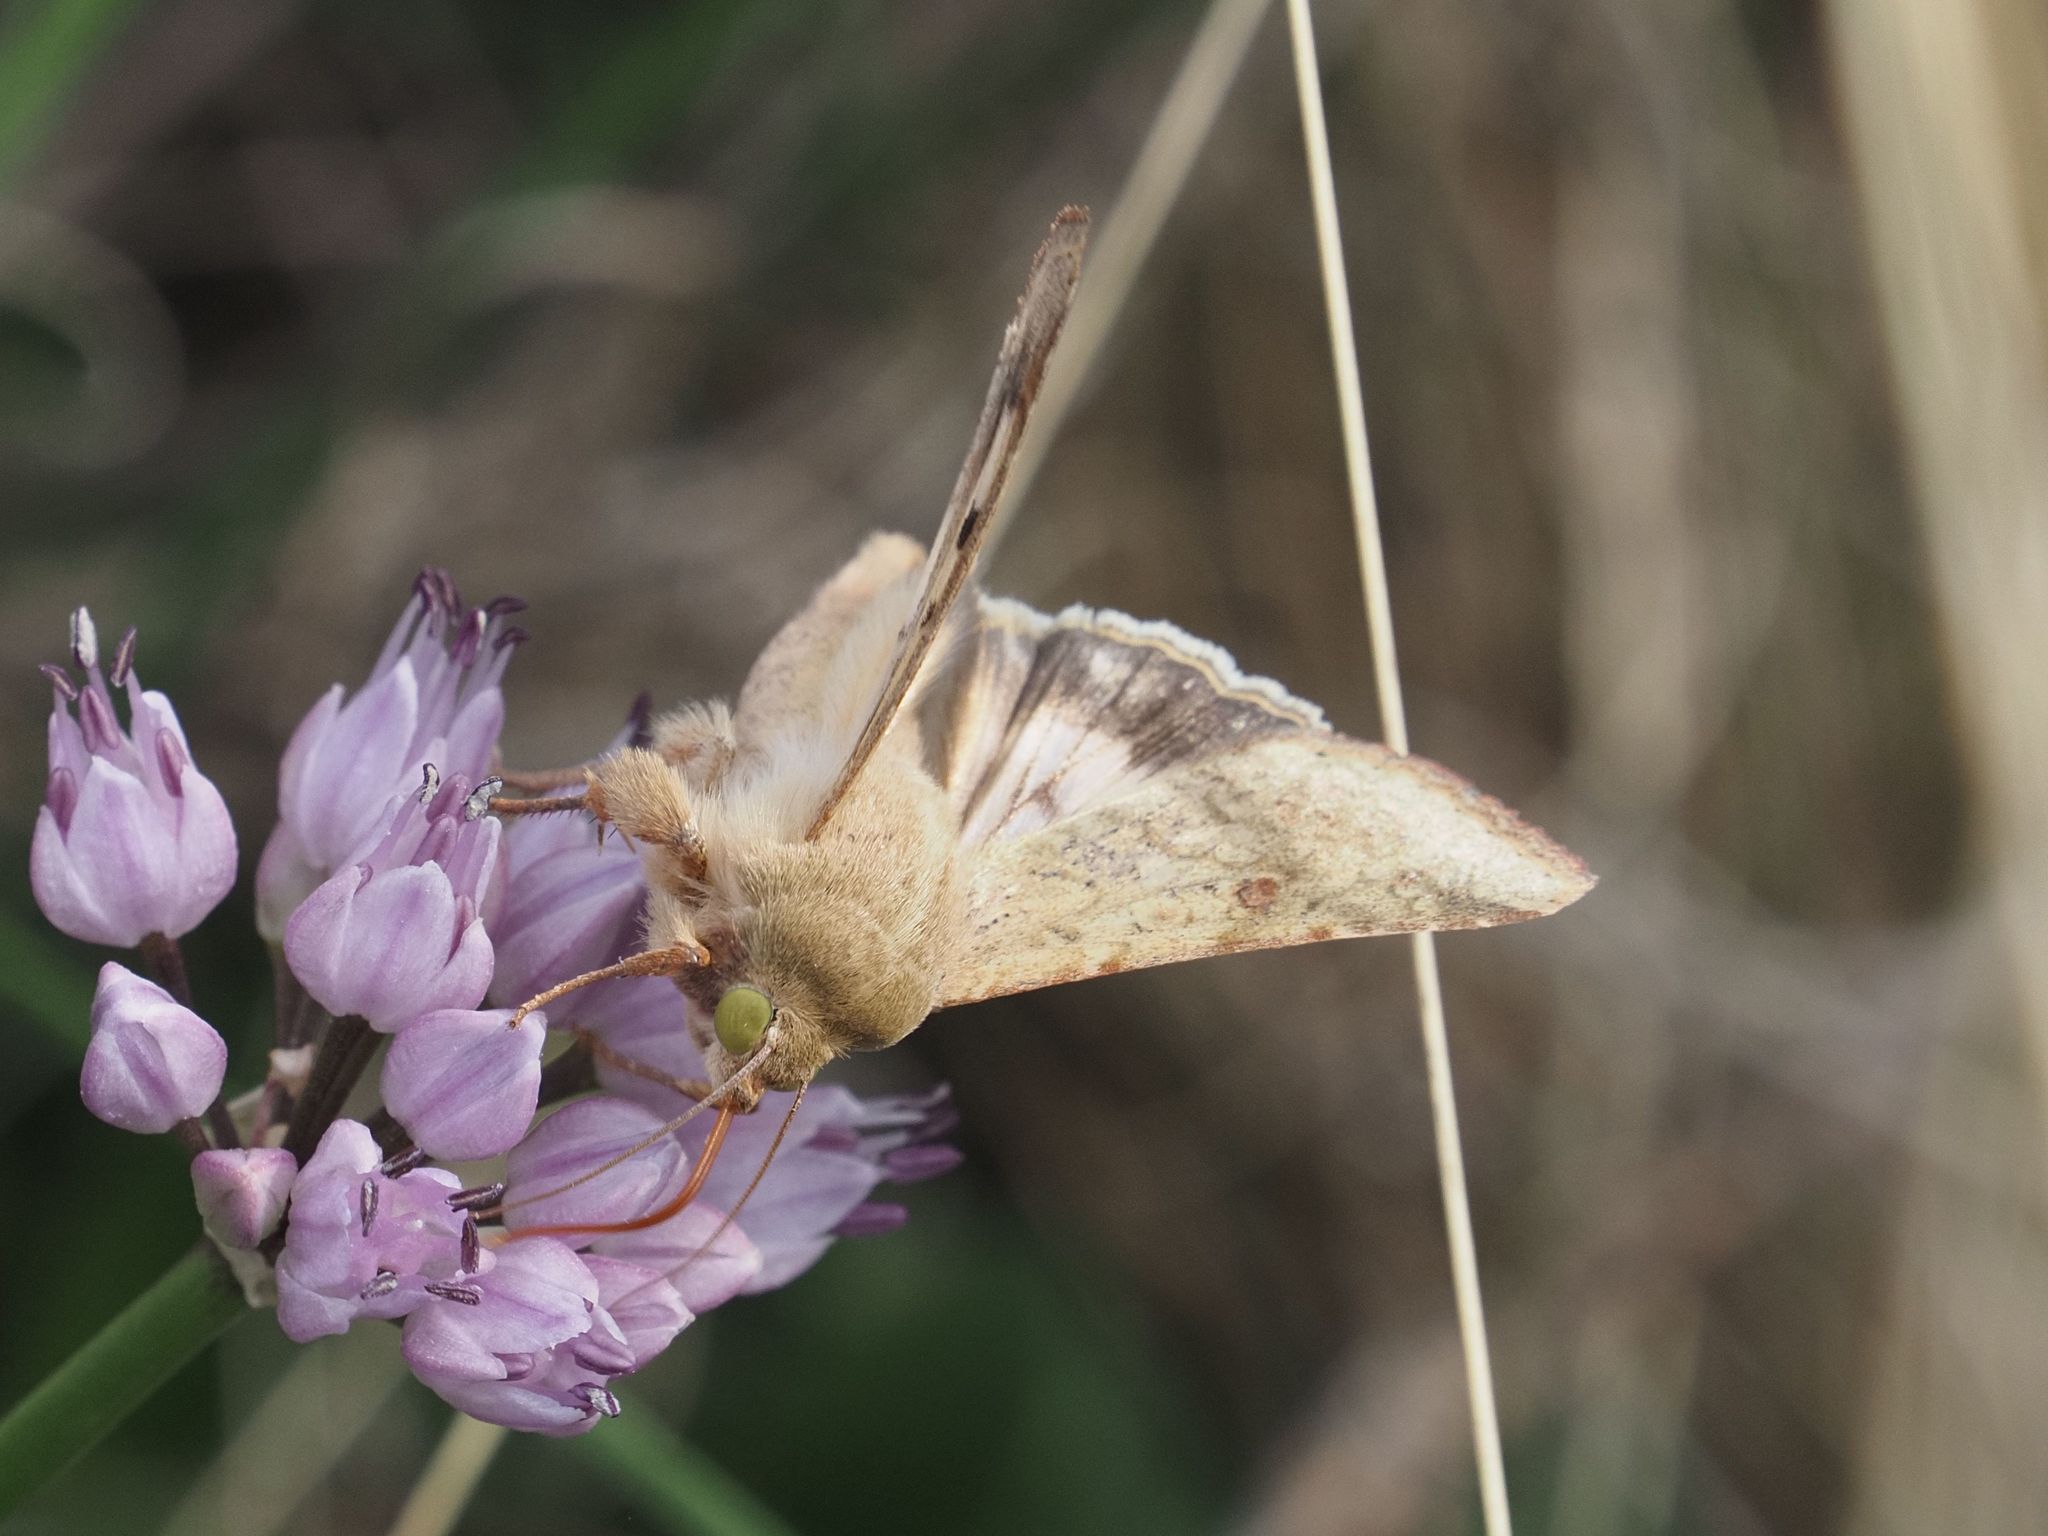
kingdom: Animalia
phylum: Arthropoda
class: Insecta
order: Lepidoptera
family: Noctuidae
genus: Helicoverpa
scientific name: Helicoverpa armigera
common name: Cotton bollworm
